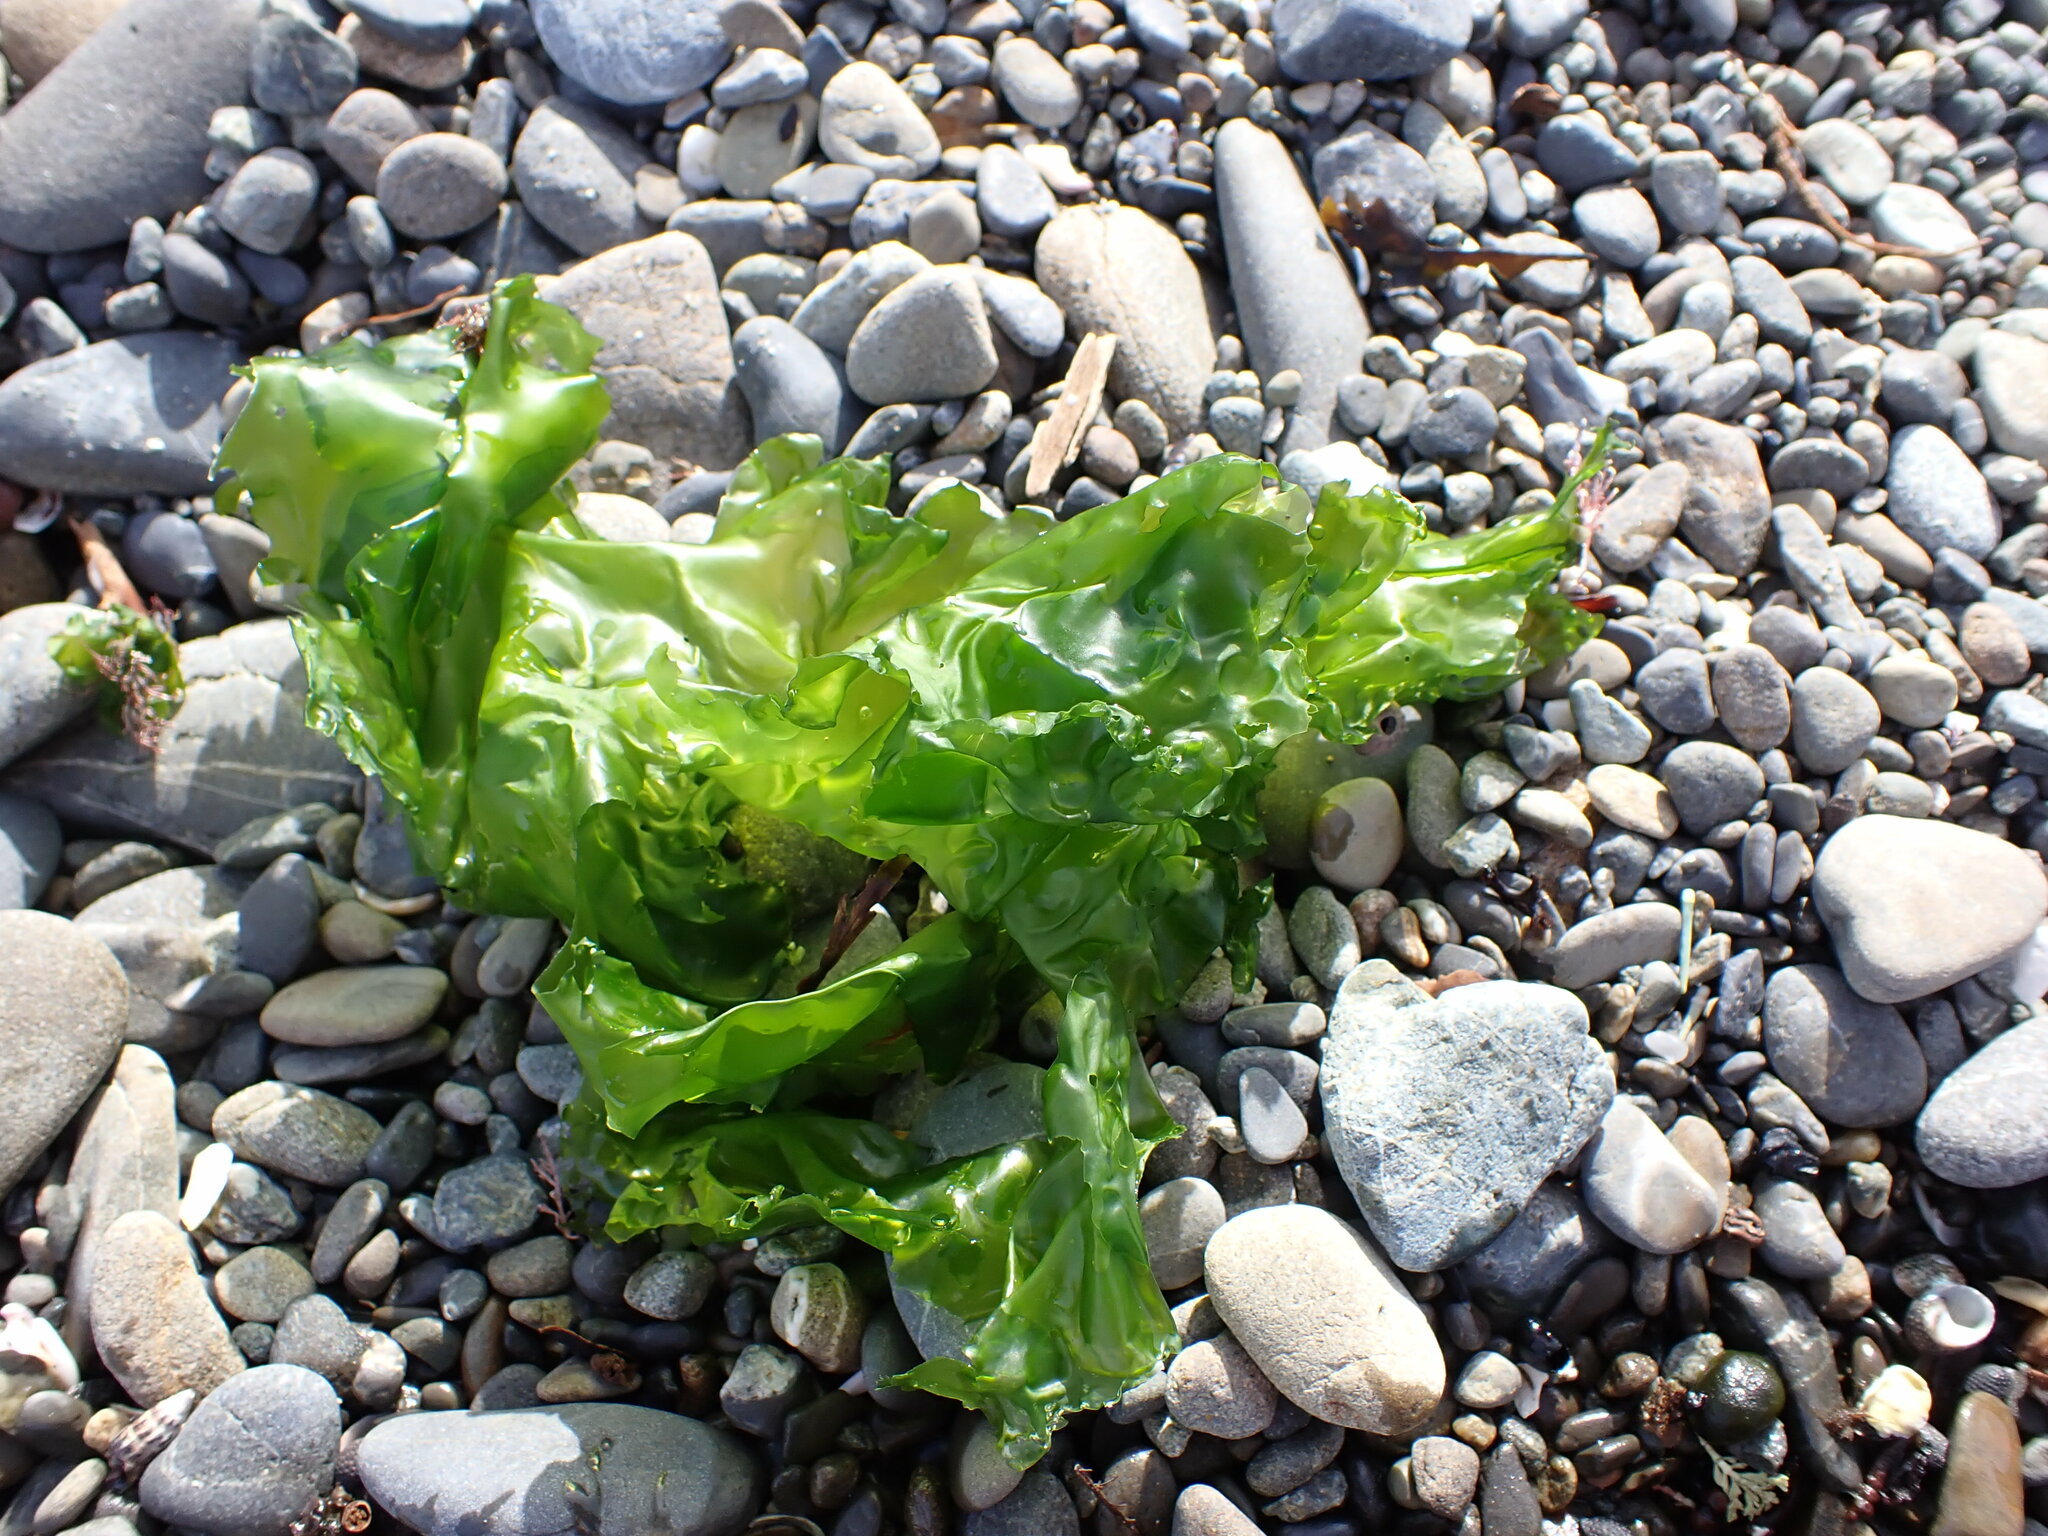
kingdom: Plantae
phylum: Chlorophyta
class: Ulvophyceae
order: Ulvales
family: Ulvaceae
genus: Ulva
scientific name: Ulva
